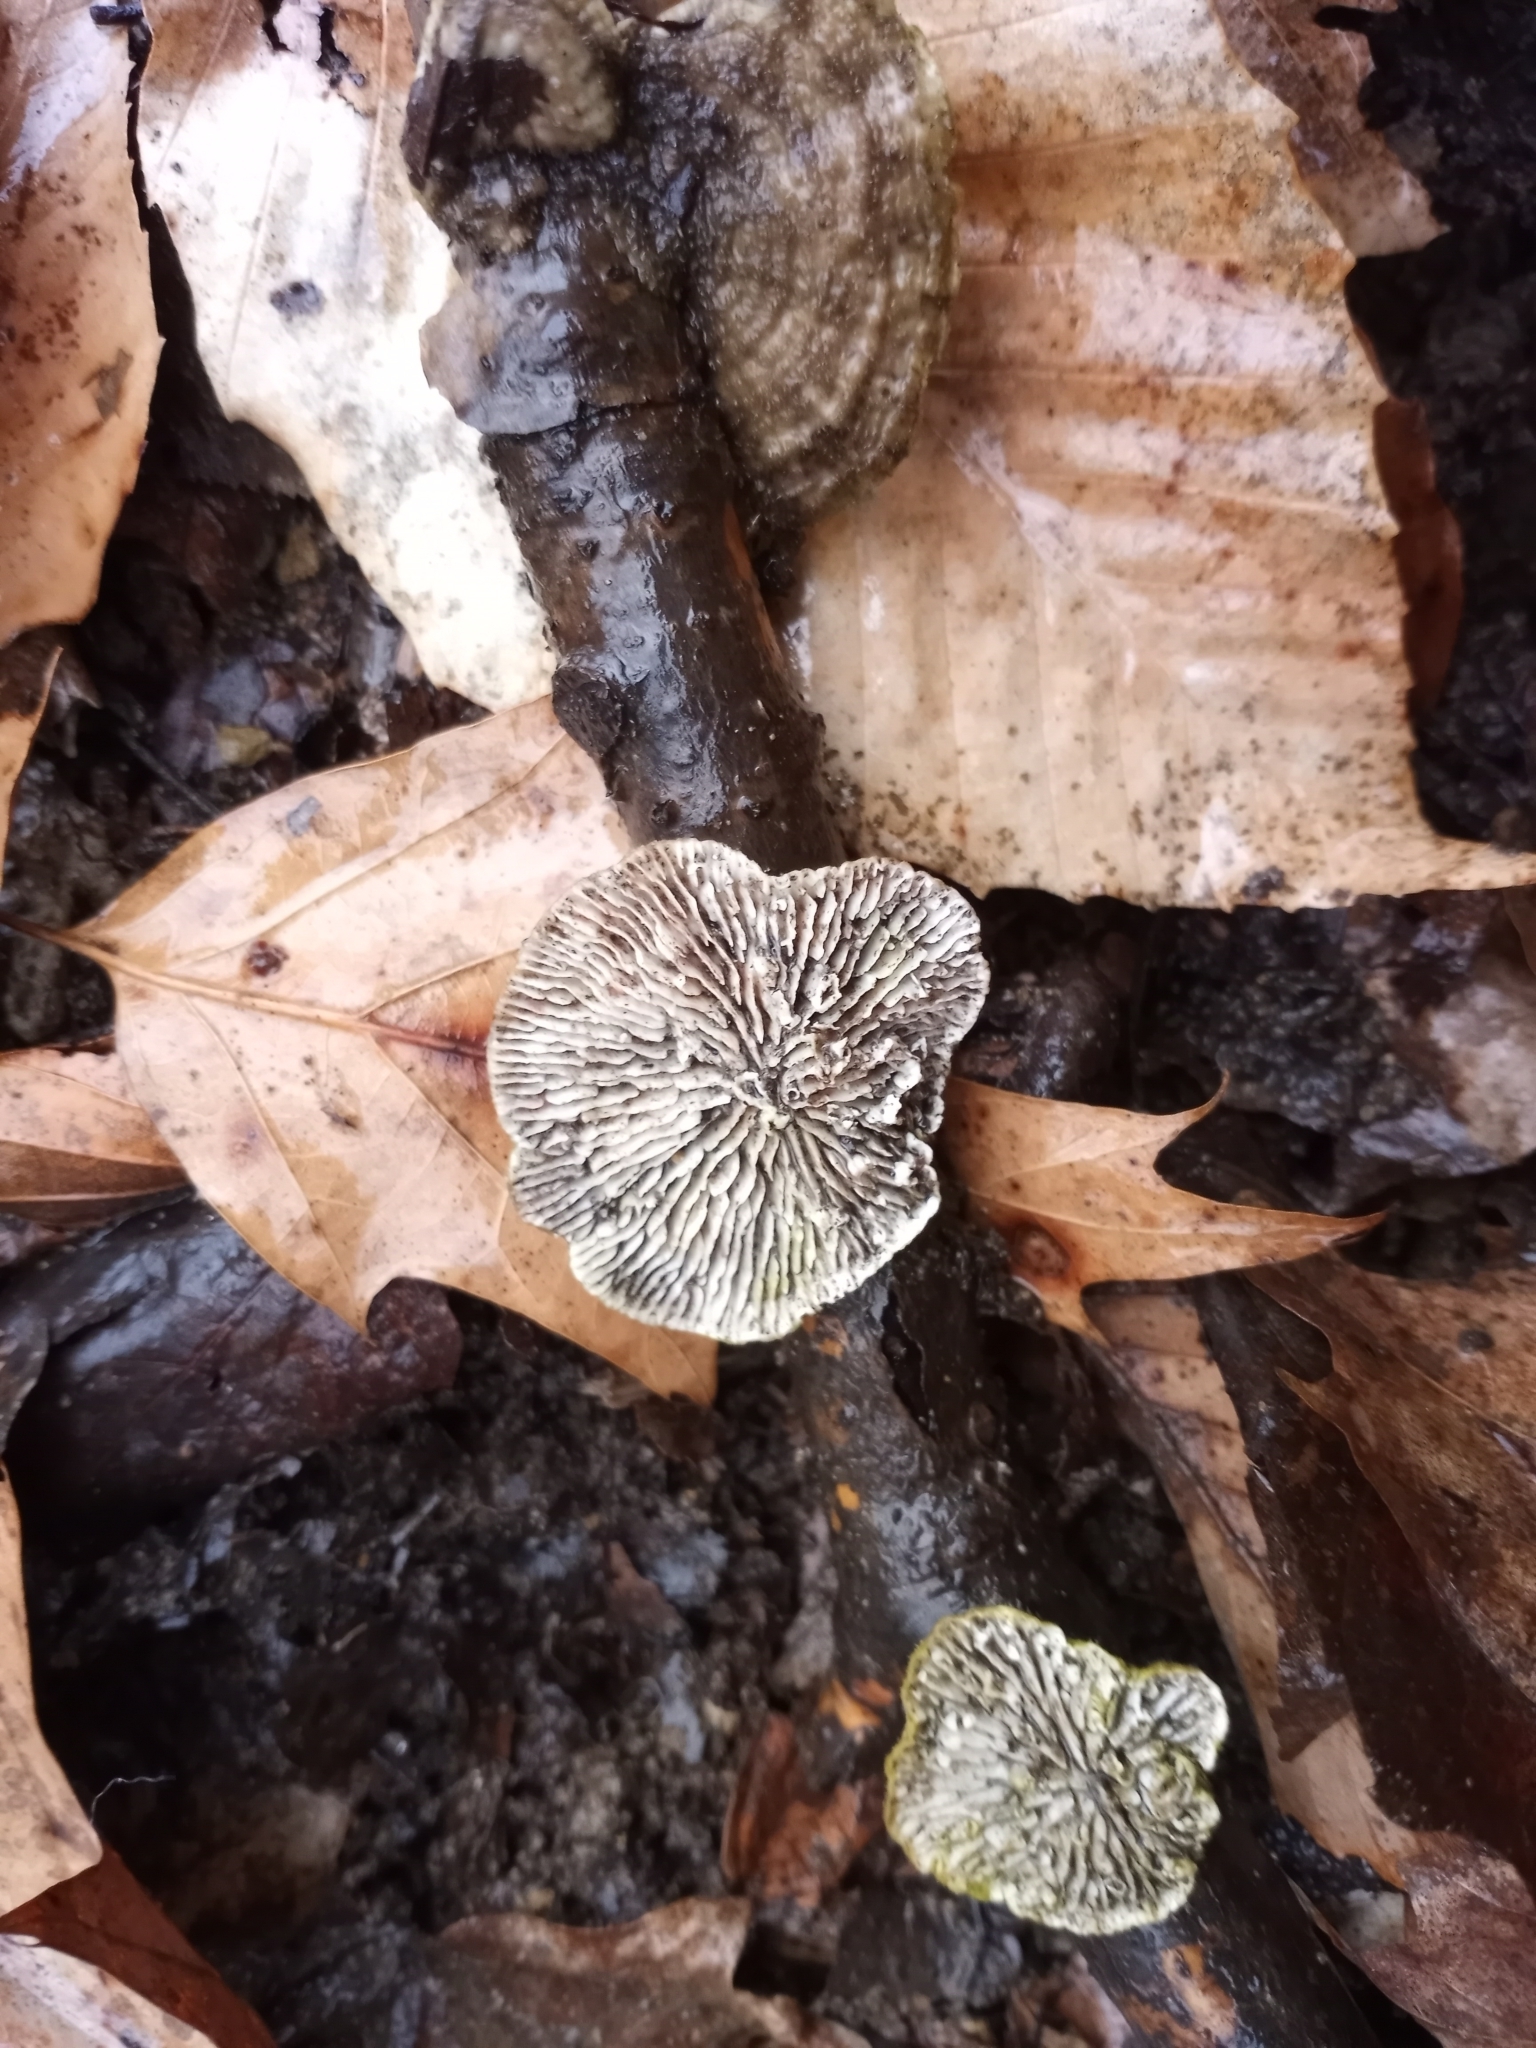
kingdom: Fungi
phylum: Basidiomycota
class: Agaricomycetes
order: Polyporales
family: Polyporaceae
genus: Lenzites
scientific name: Lenzites betulinus
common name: Birch mazegill
